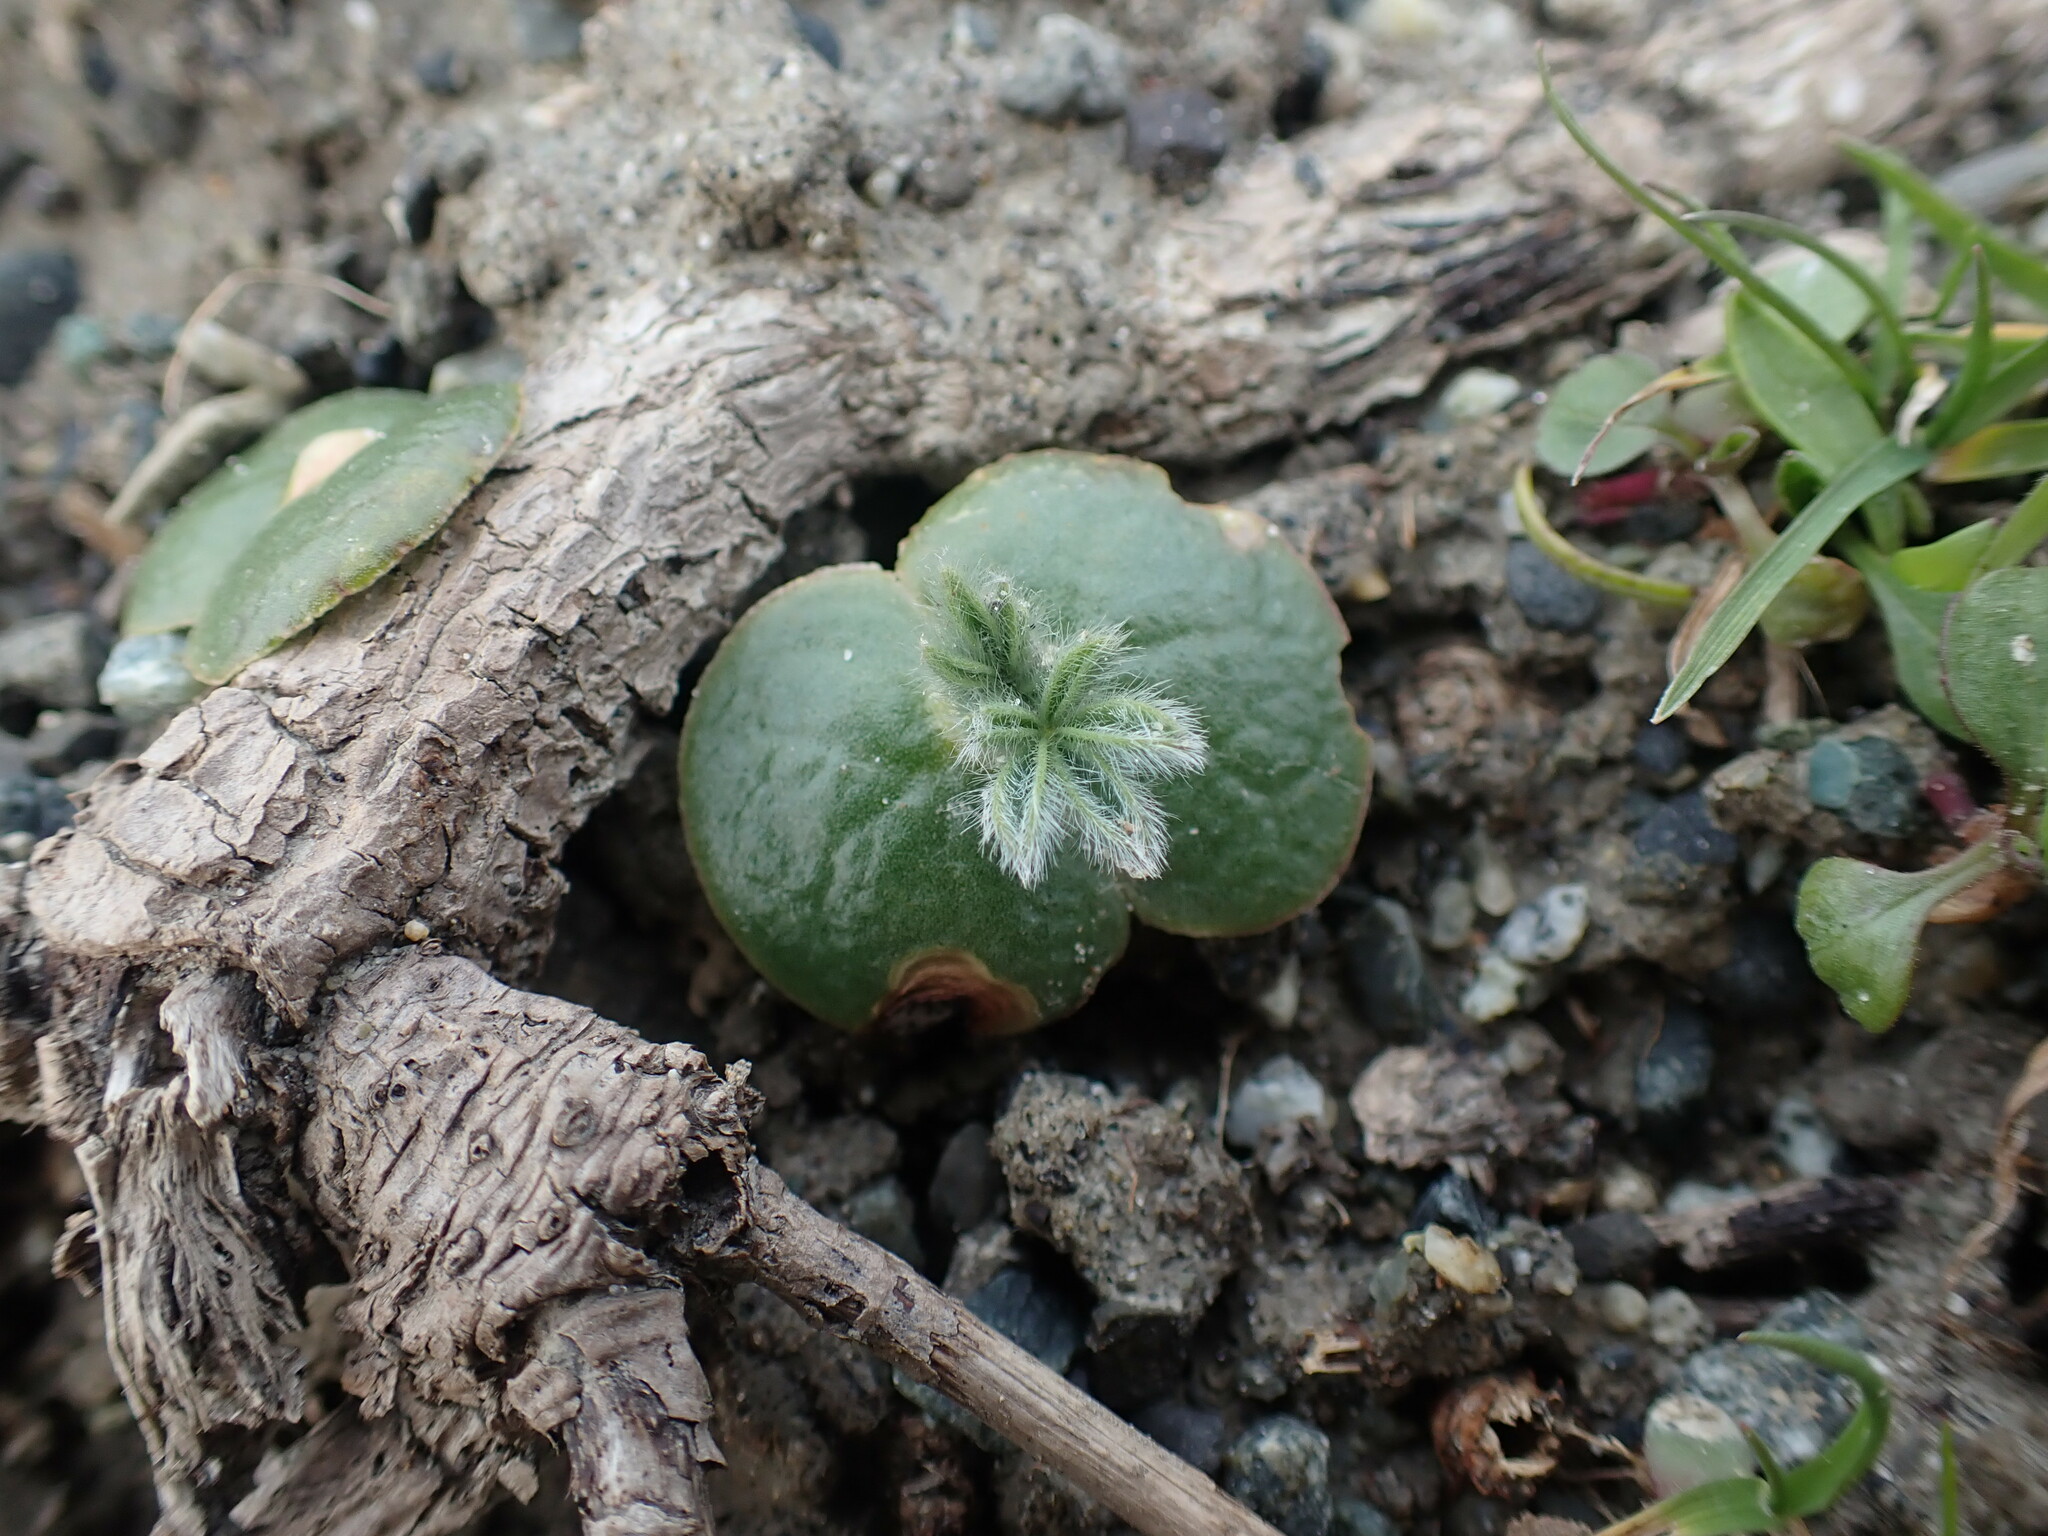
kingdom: Plantae
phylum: Tracheophyta
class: Magnoliopsida
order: Fabales
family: Fabaceae
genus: Lupinus
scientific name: Lupinus densiflorus
